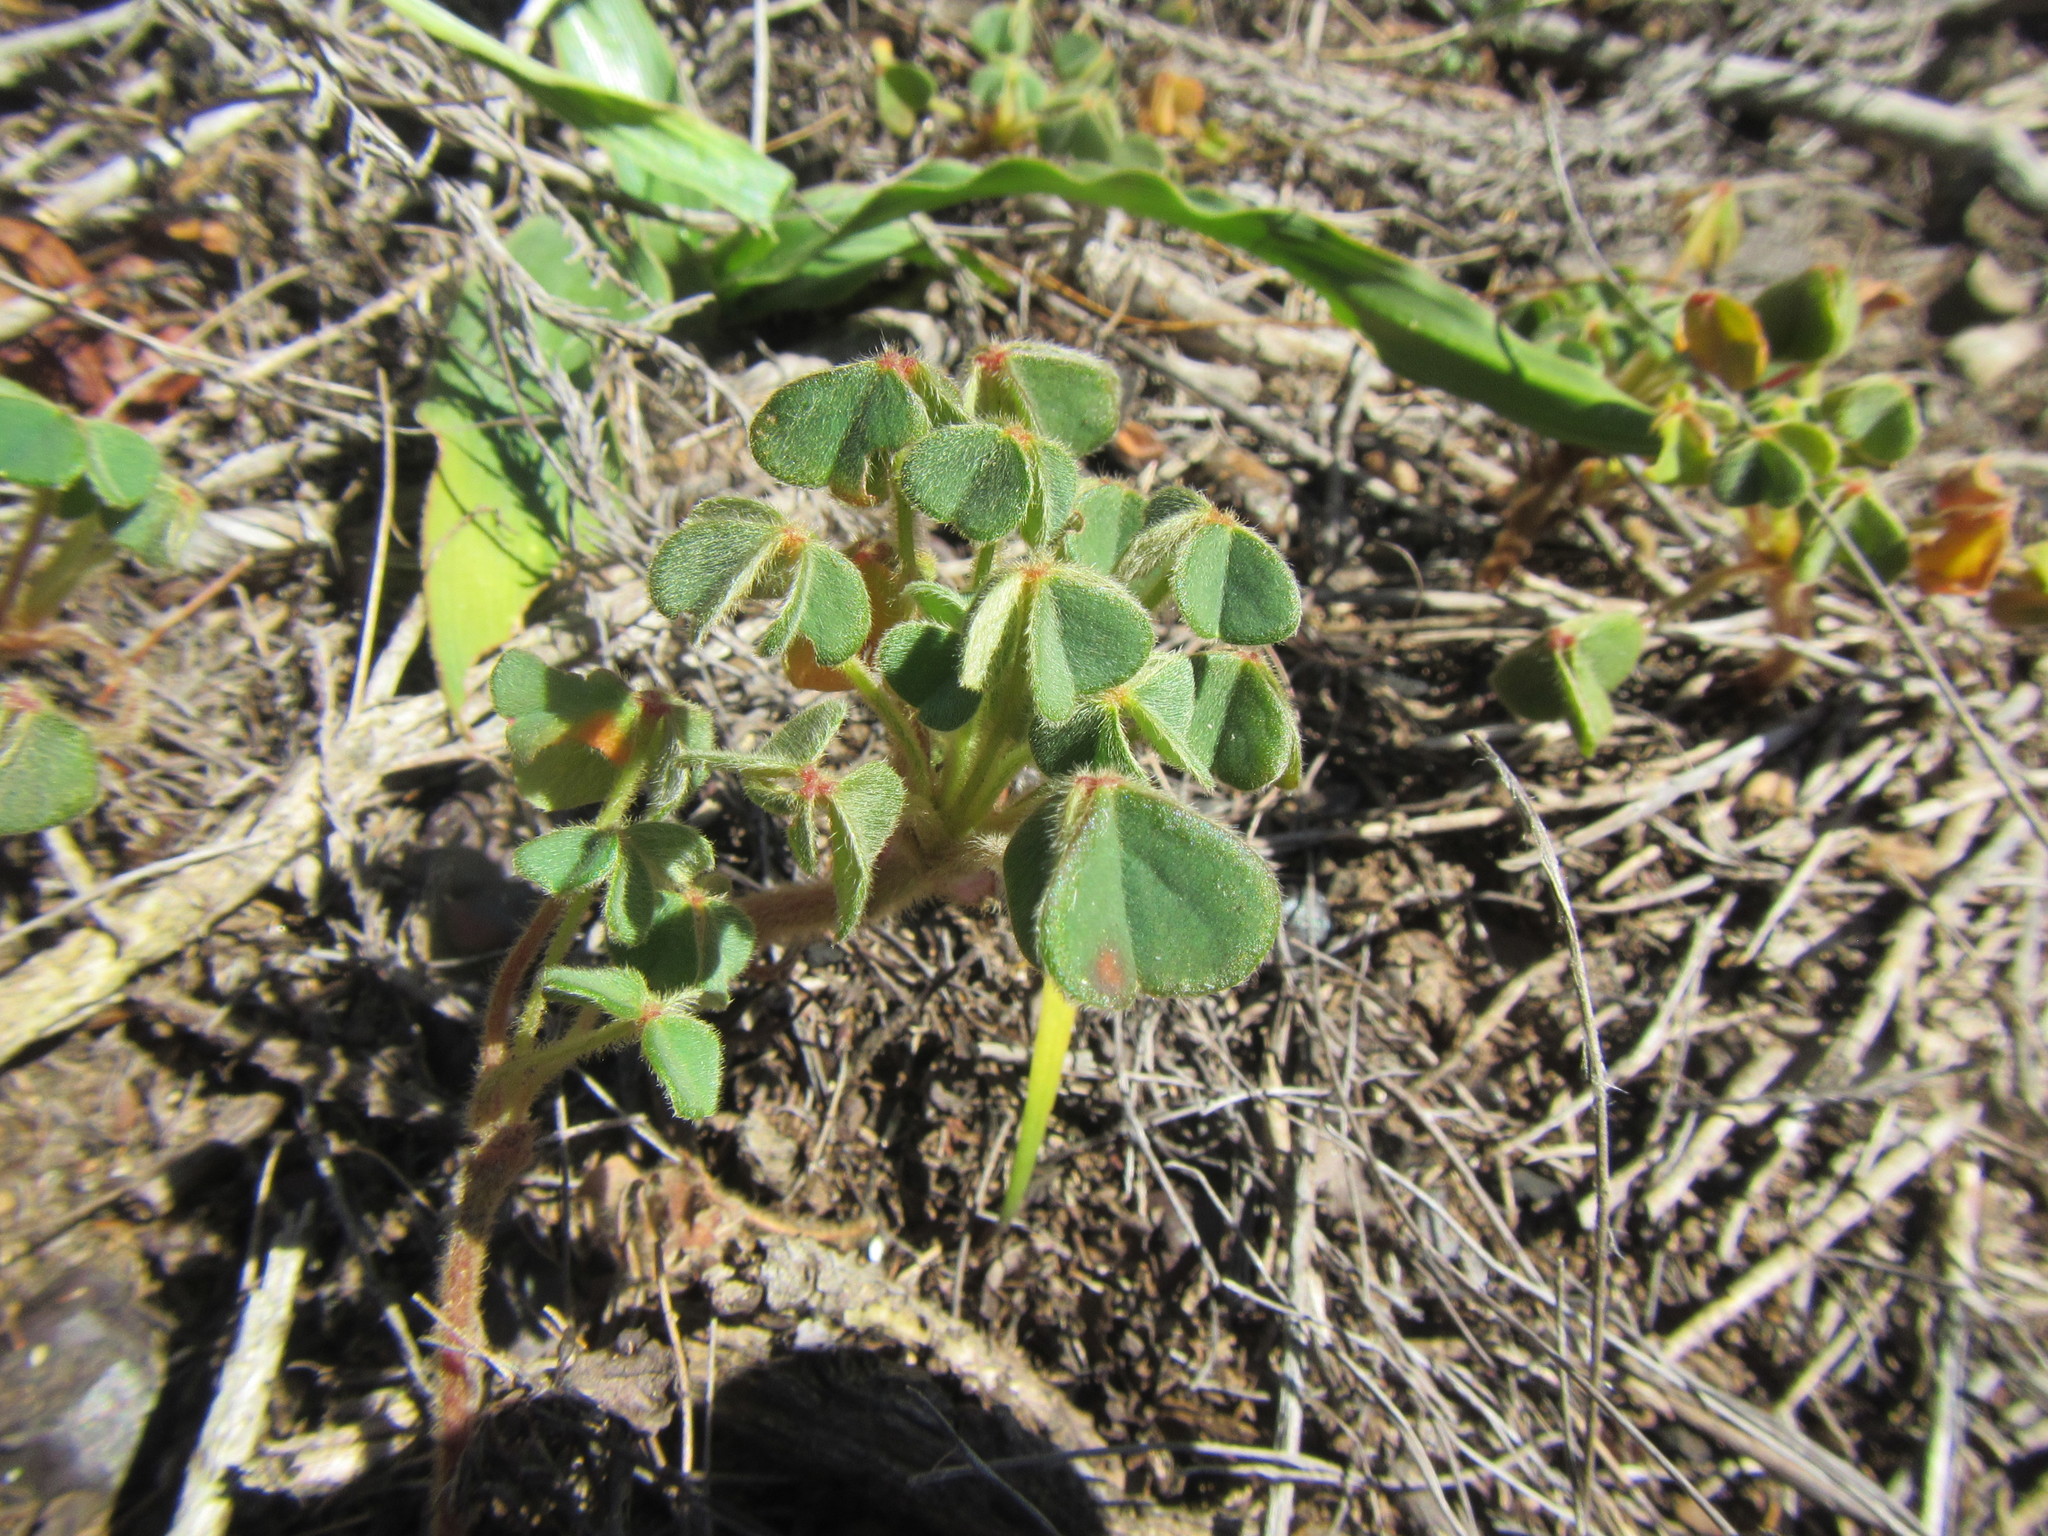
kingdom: Plantae
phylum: Tracheophyta
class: Magnoliopsida
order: Oxalidales
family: Oxalidaceae
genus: Oxalis
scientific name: Oxalis lanata
